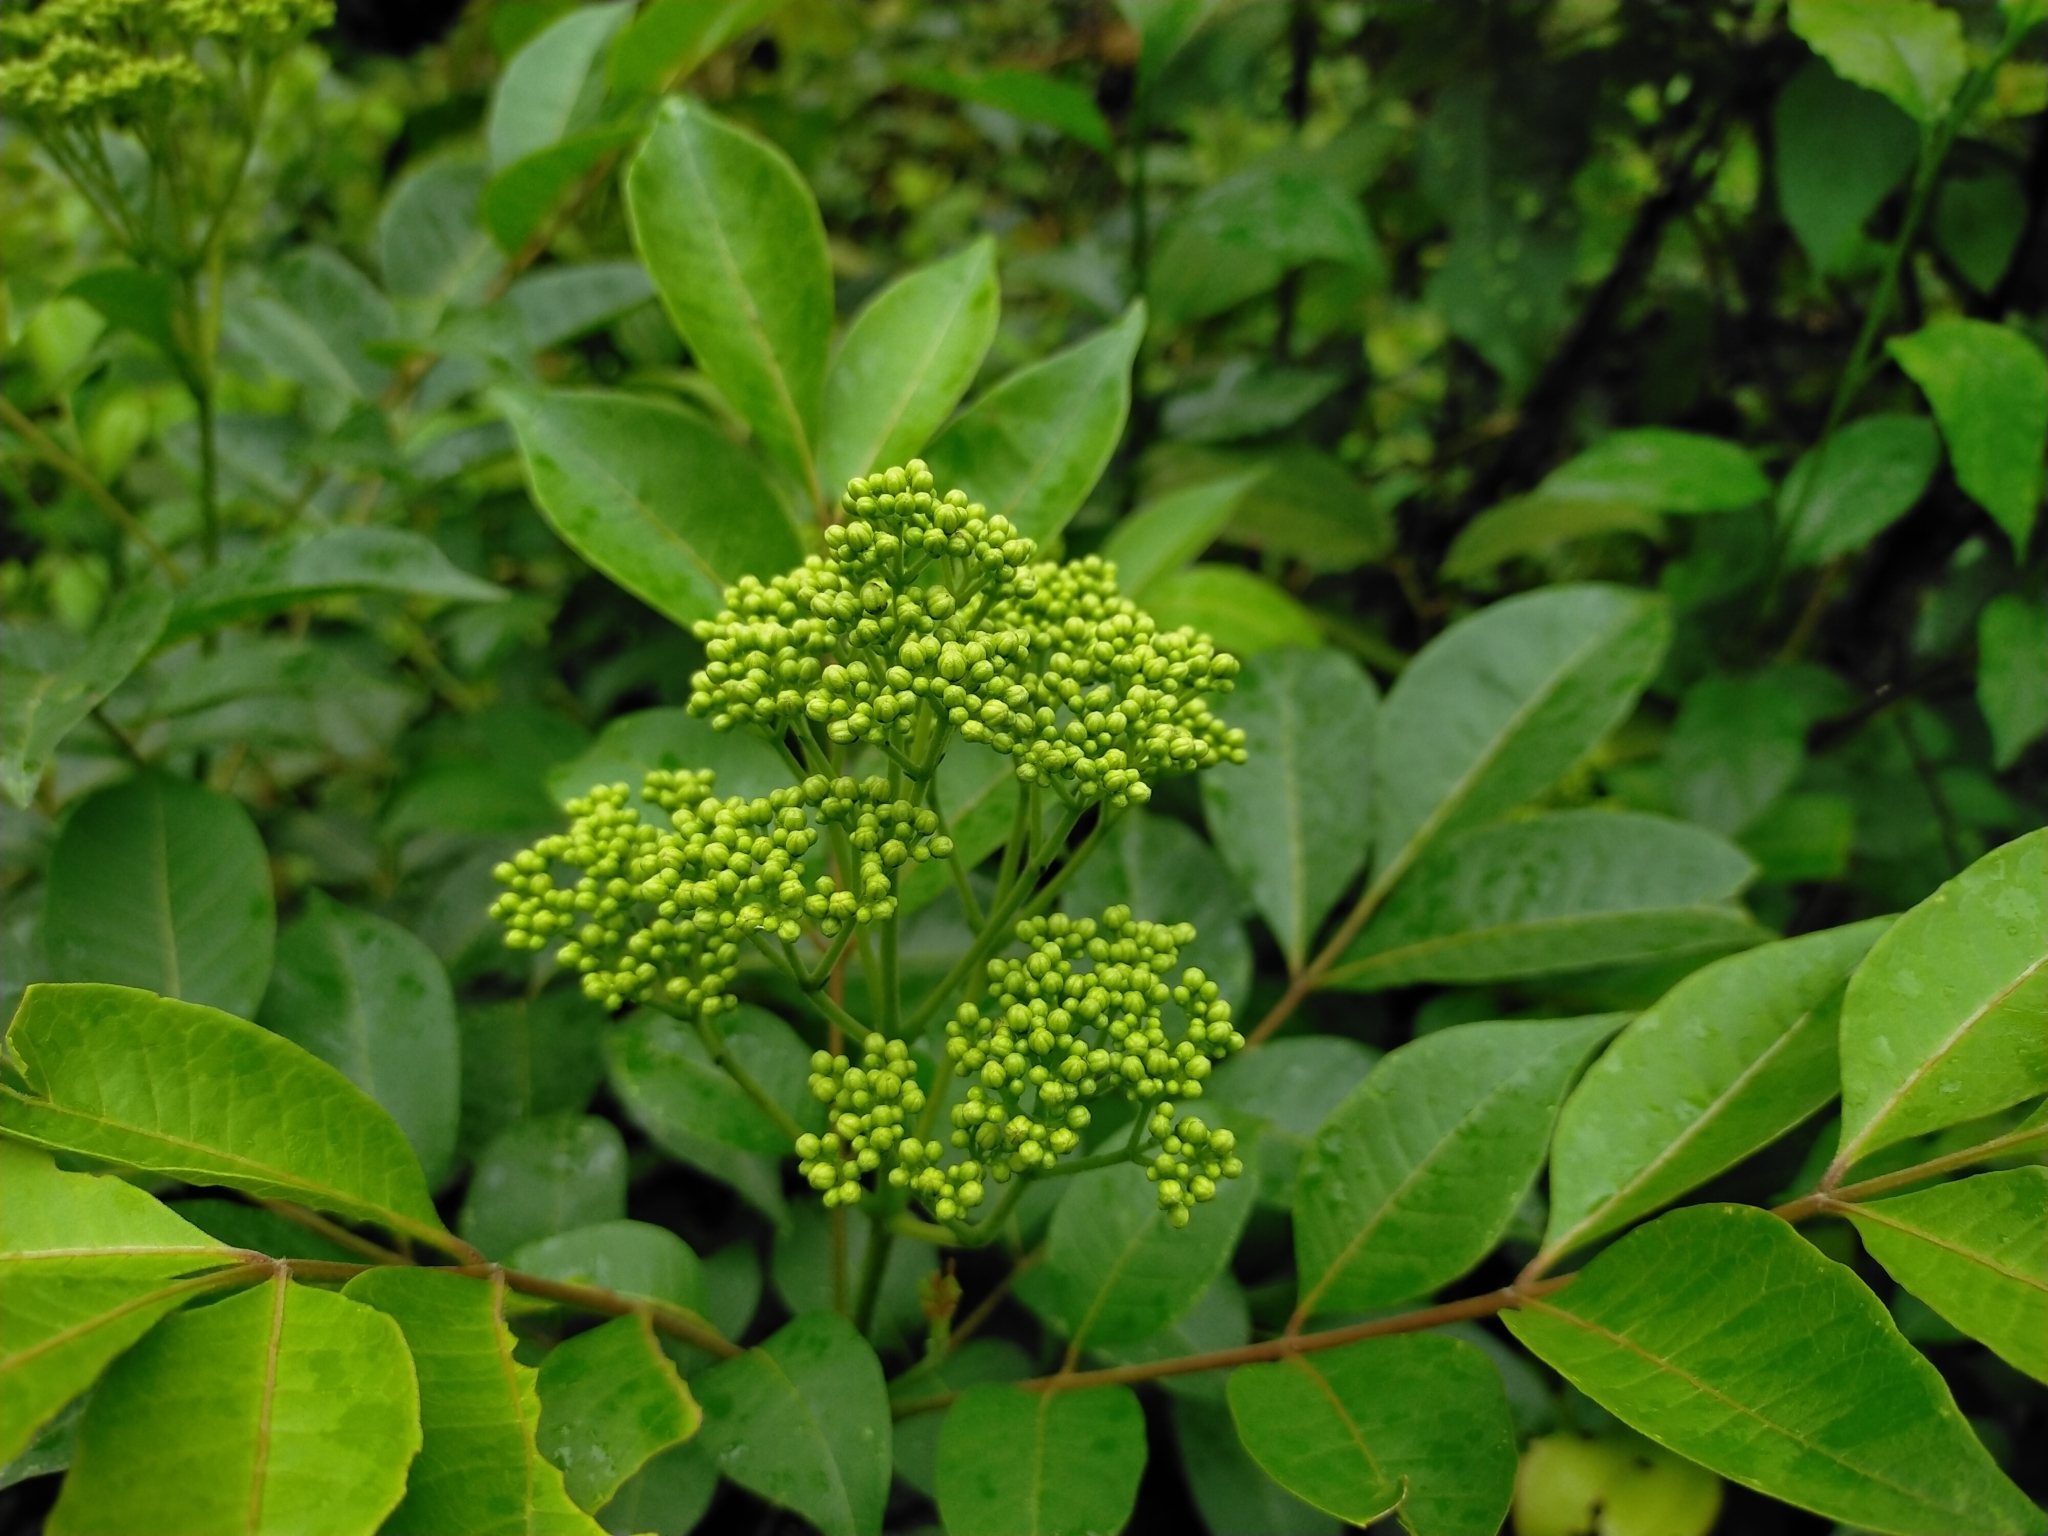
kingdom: Plantae
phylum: Tracheophyta
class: Magnoliopsida
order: Sapindales
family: Rutaceae
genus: Tetradium
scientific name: Tetradium glabrifolium
